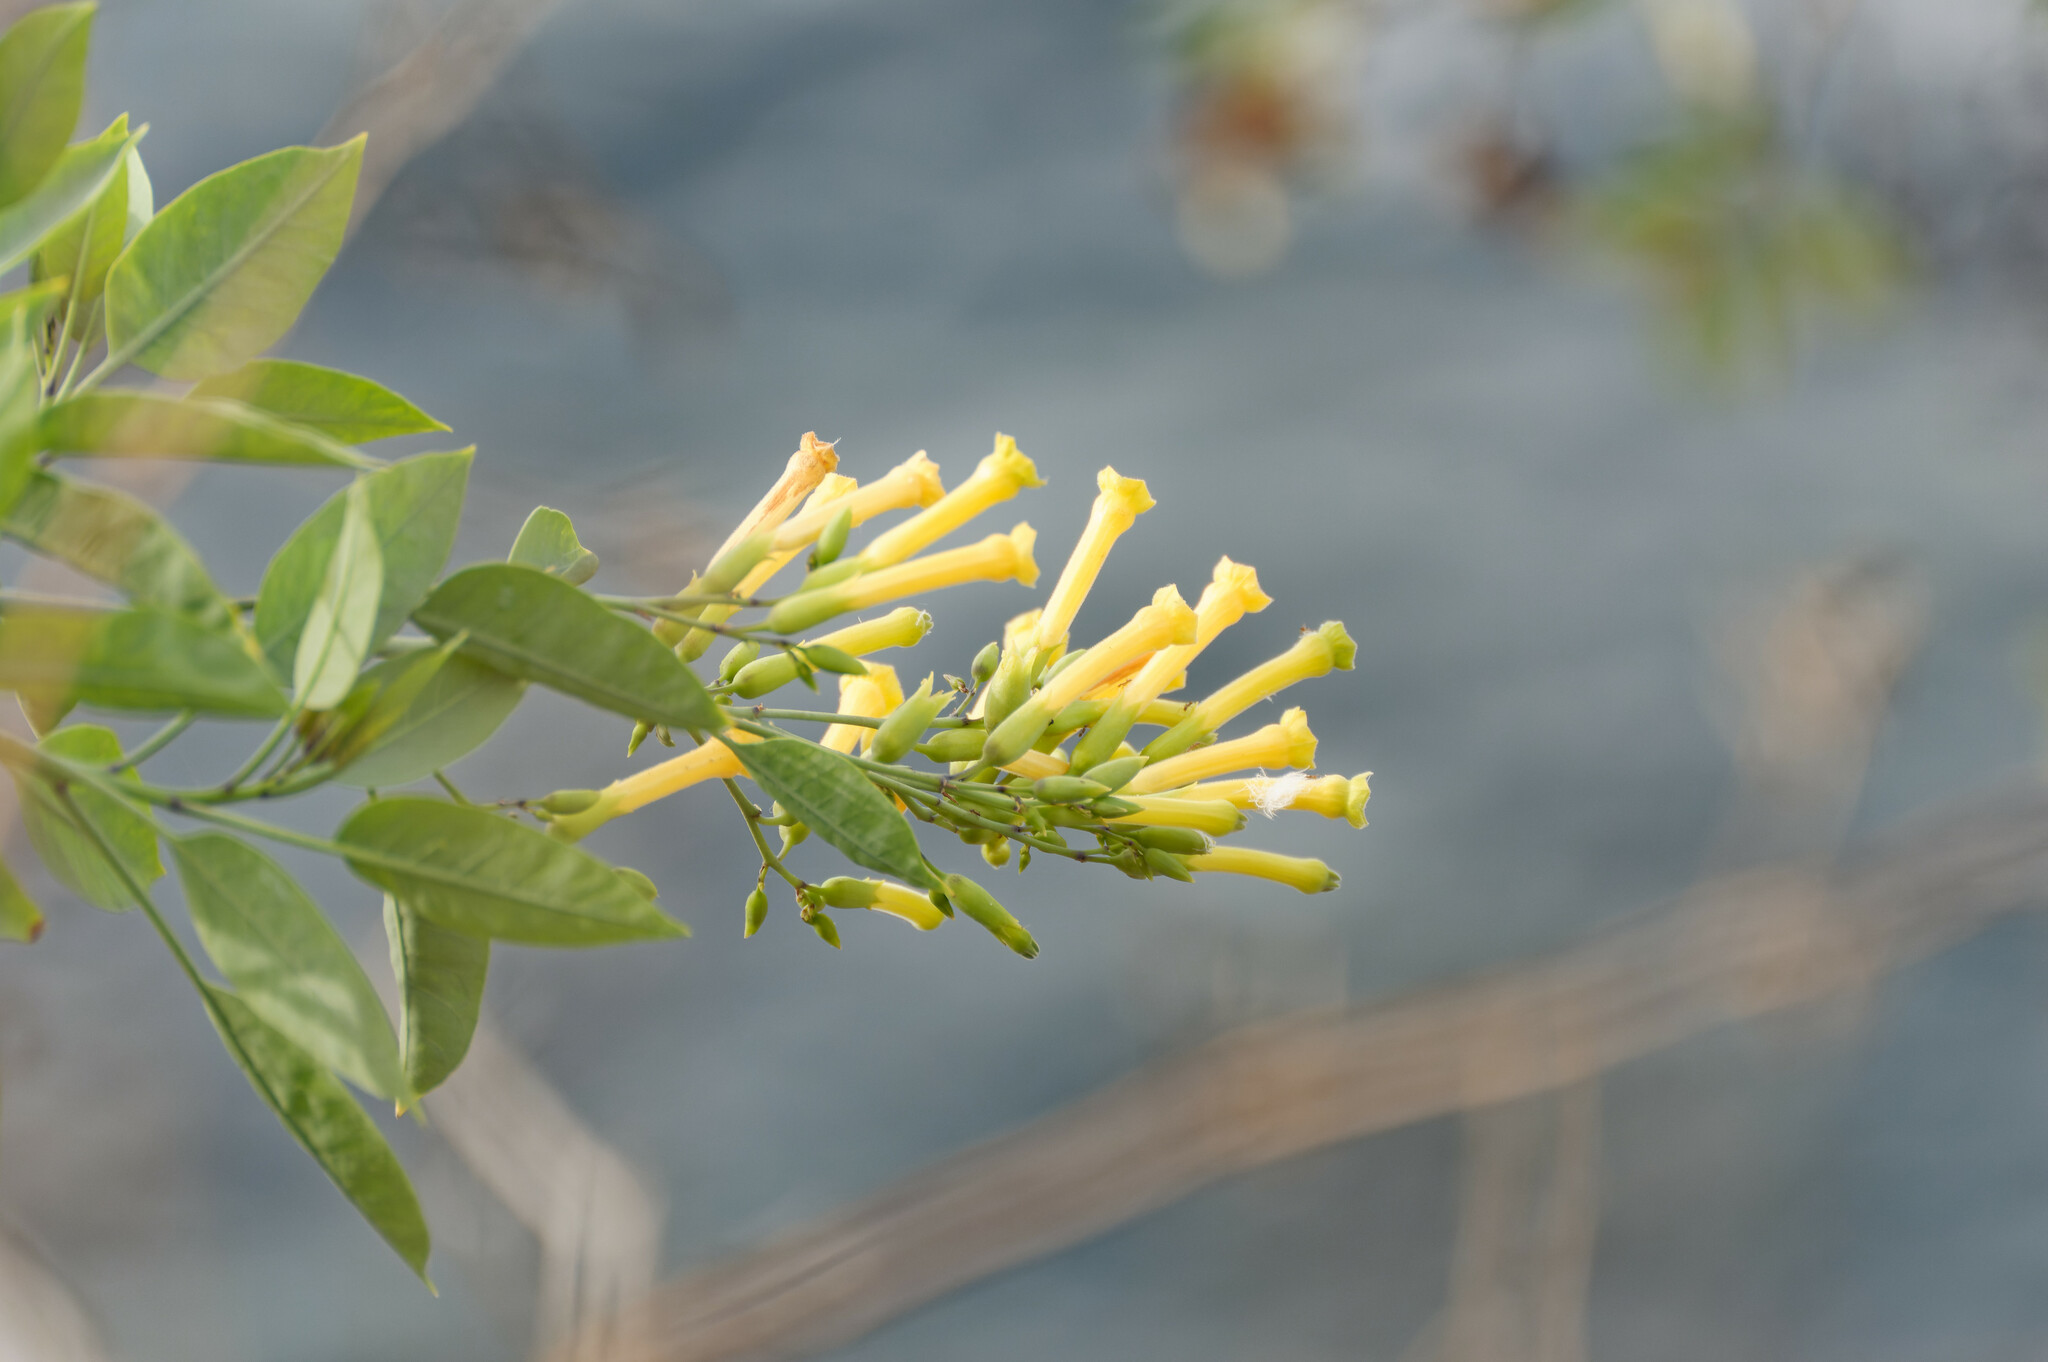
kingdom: Plantae
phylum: Tracheophyta
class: Magnoliopsida
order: Solanales
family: Solanaceae
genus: Nicotiana
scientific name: Nicotiana glauca
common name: Tree tobacco
